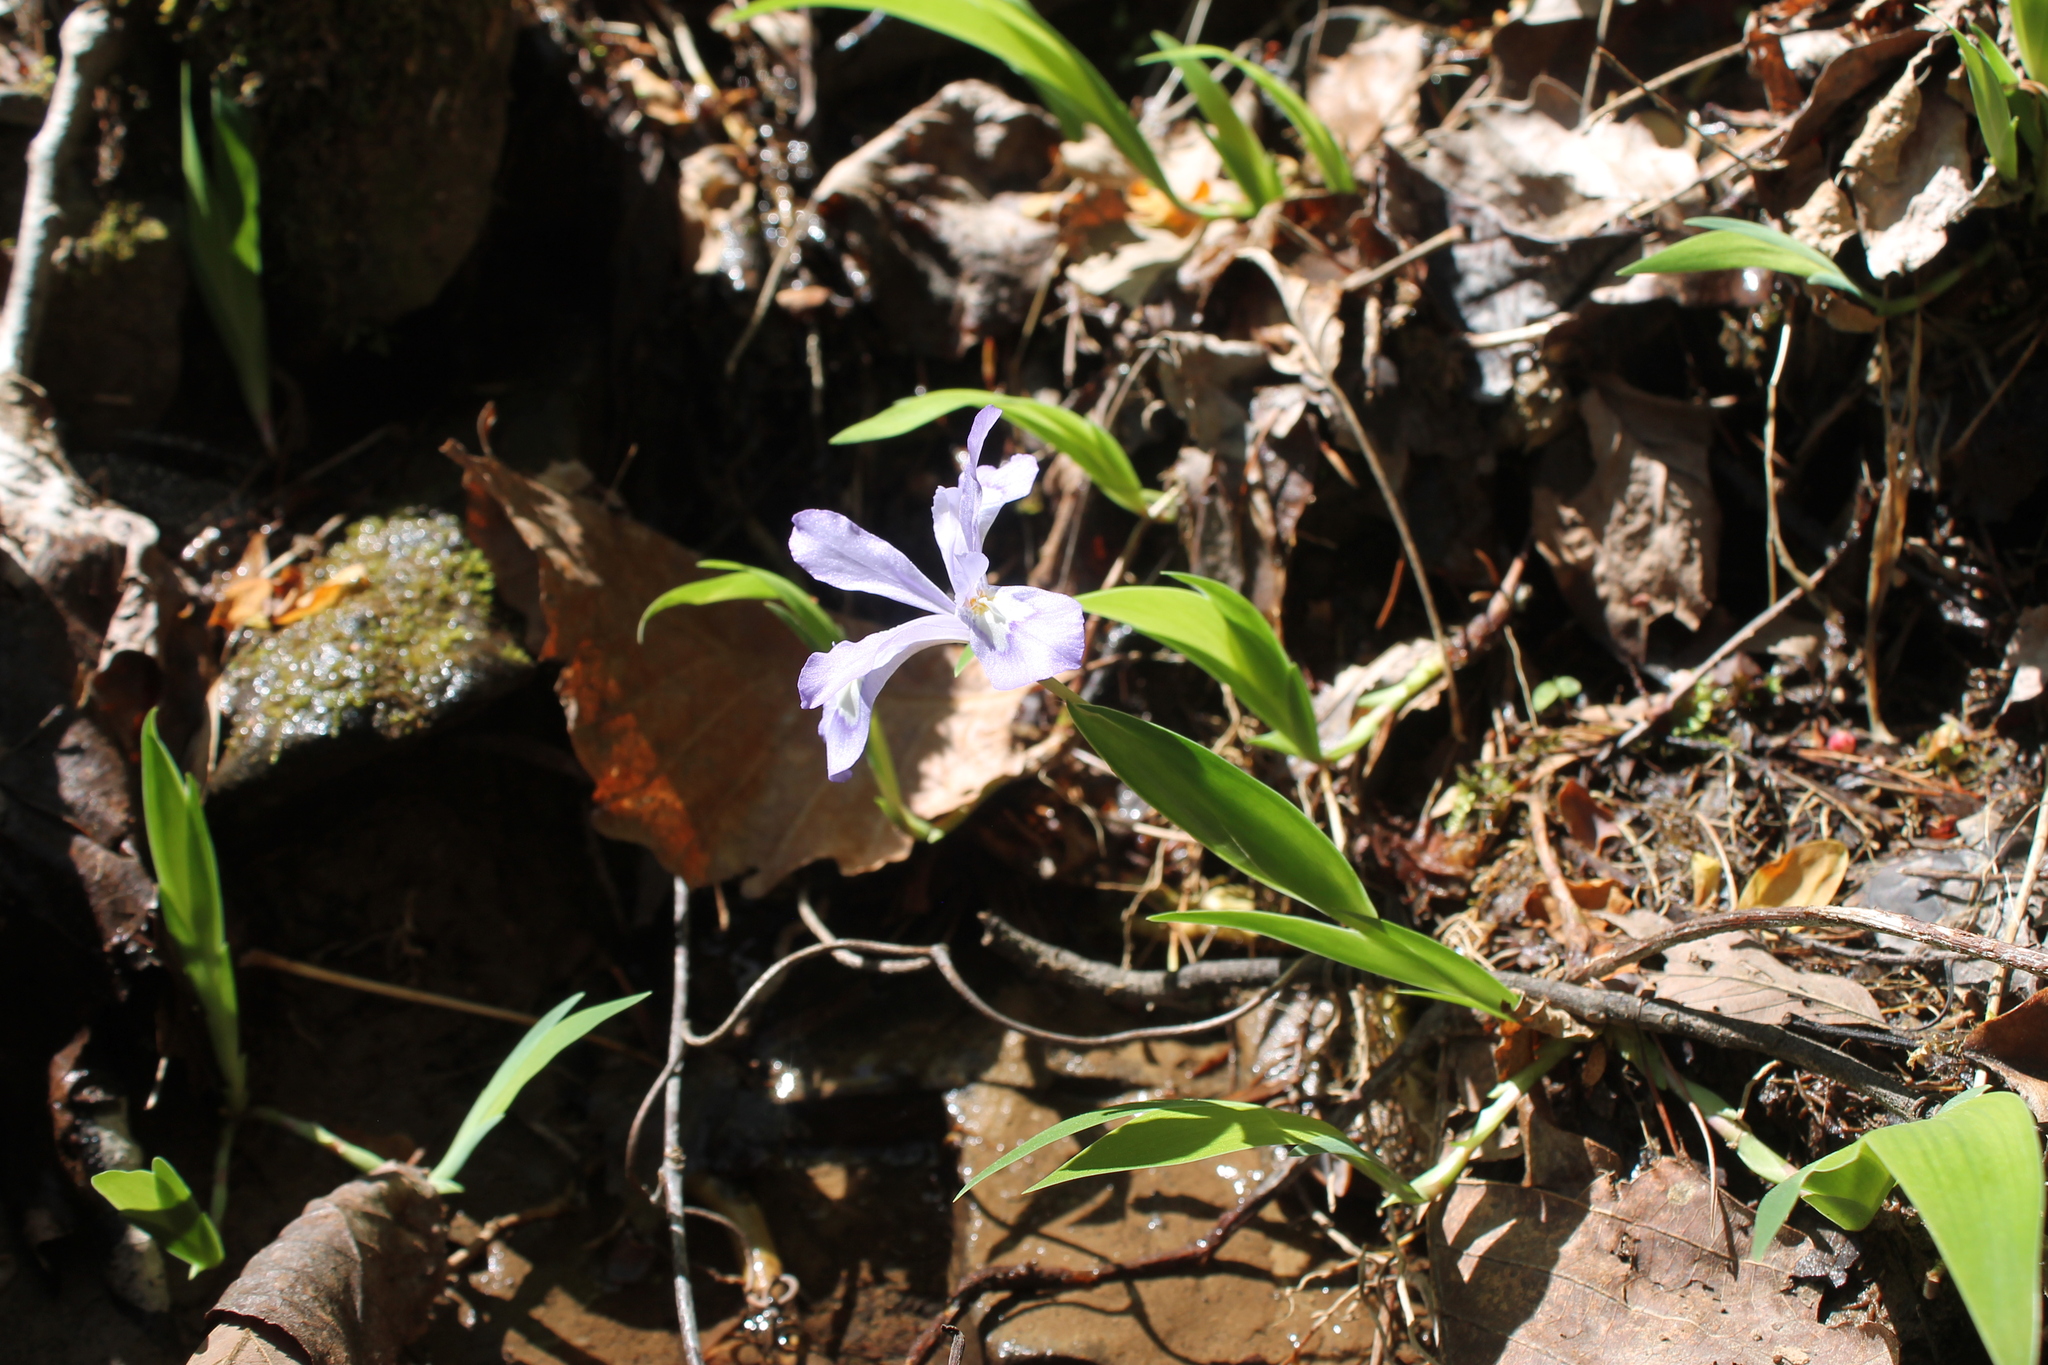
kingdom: Plantae
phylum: Tracheophyta
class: Liliopsida
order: Asparagales
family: Iridaceae
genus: Iris
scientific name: Iris cristata
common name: Crested iris
